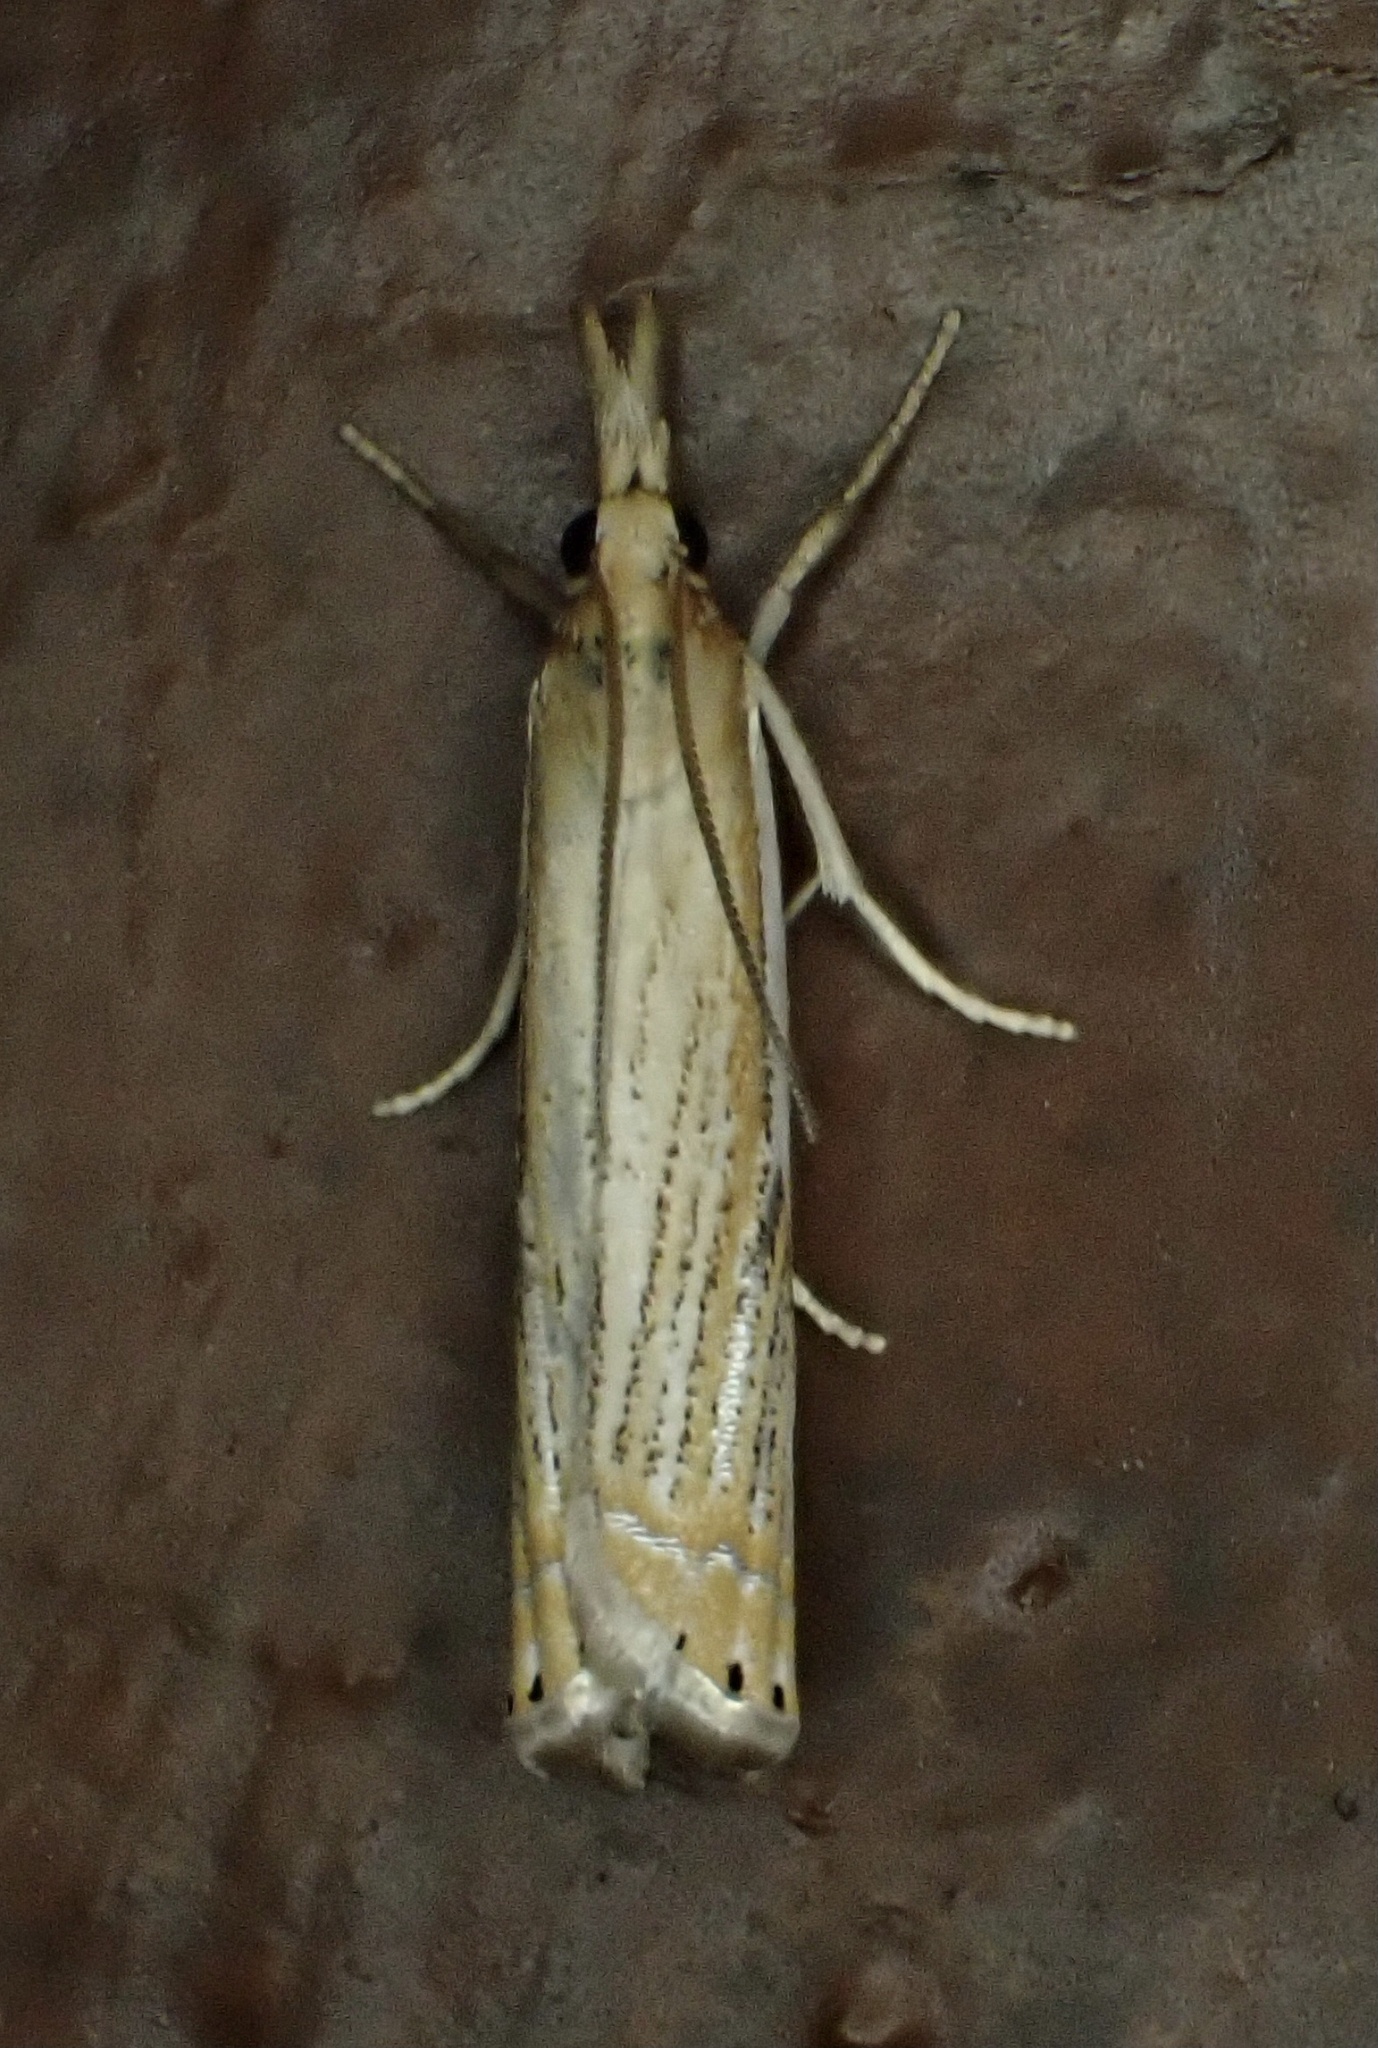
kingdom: Animalia
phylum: Arthropoda
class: Insecta
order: Lepidoptera
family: Crambidae
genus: Crambus
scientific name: Crambus saltuellus
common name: Pasture grass-veneer
